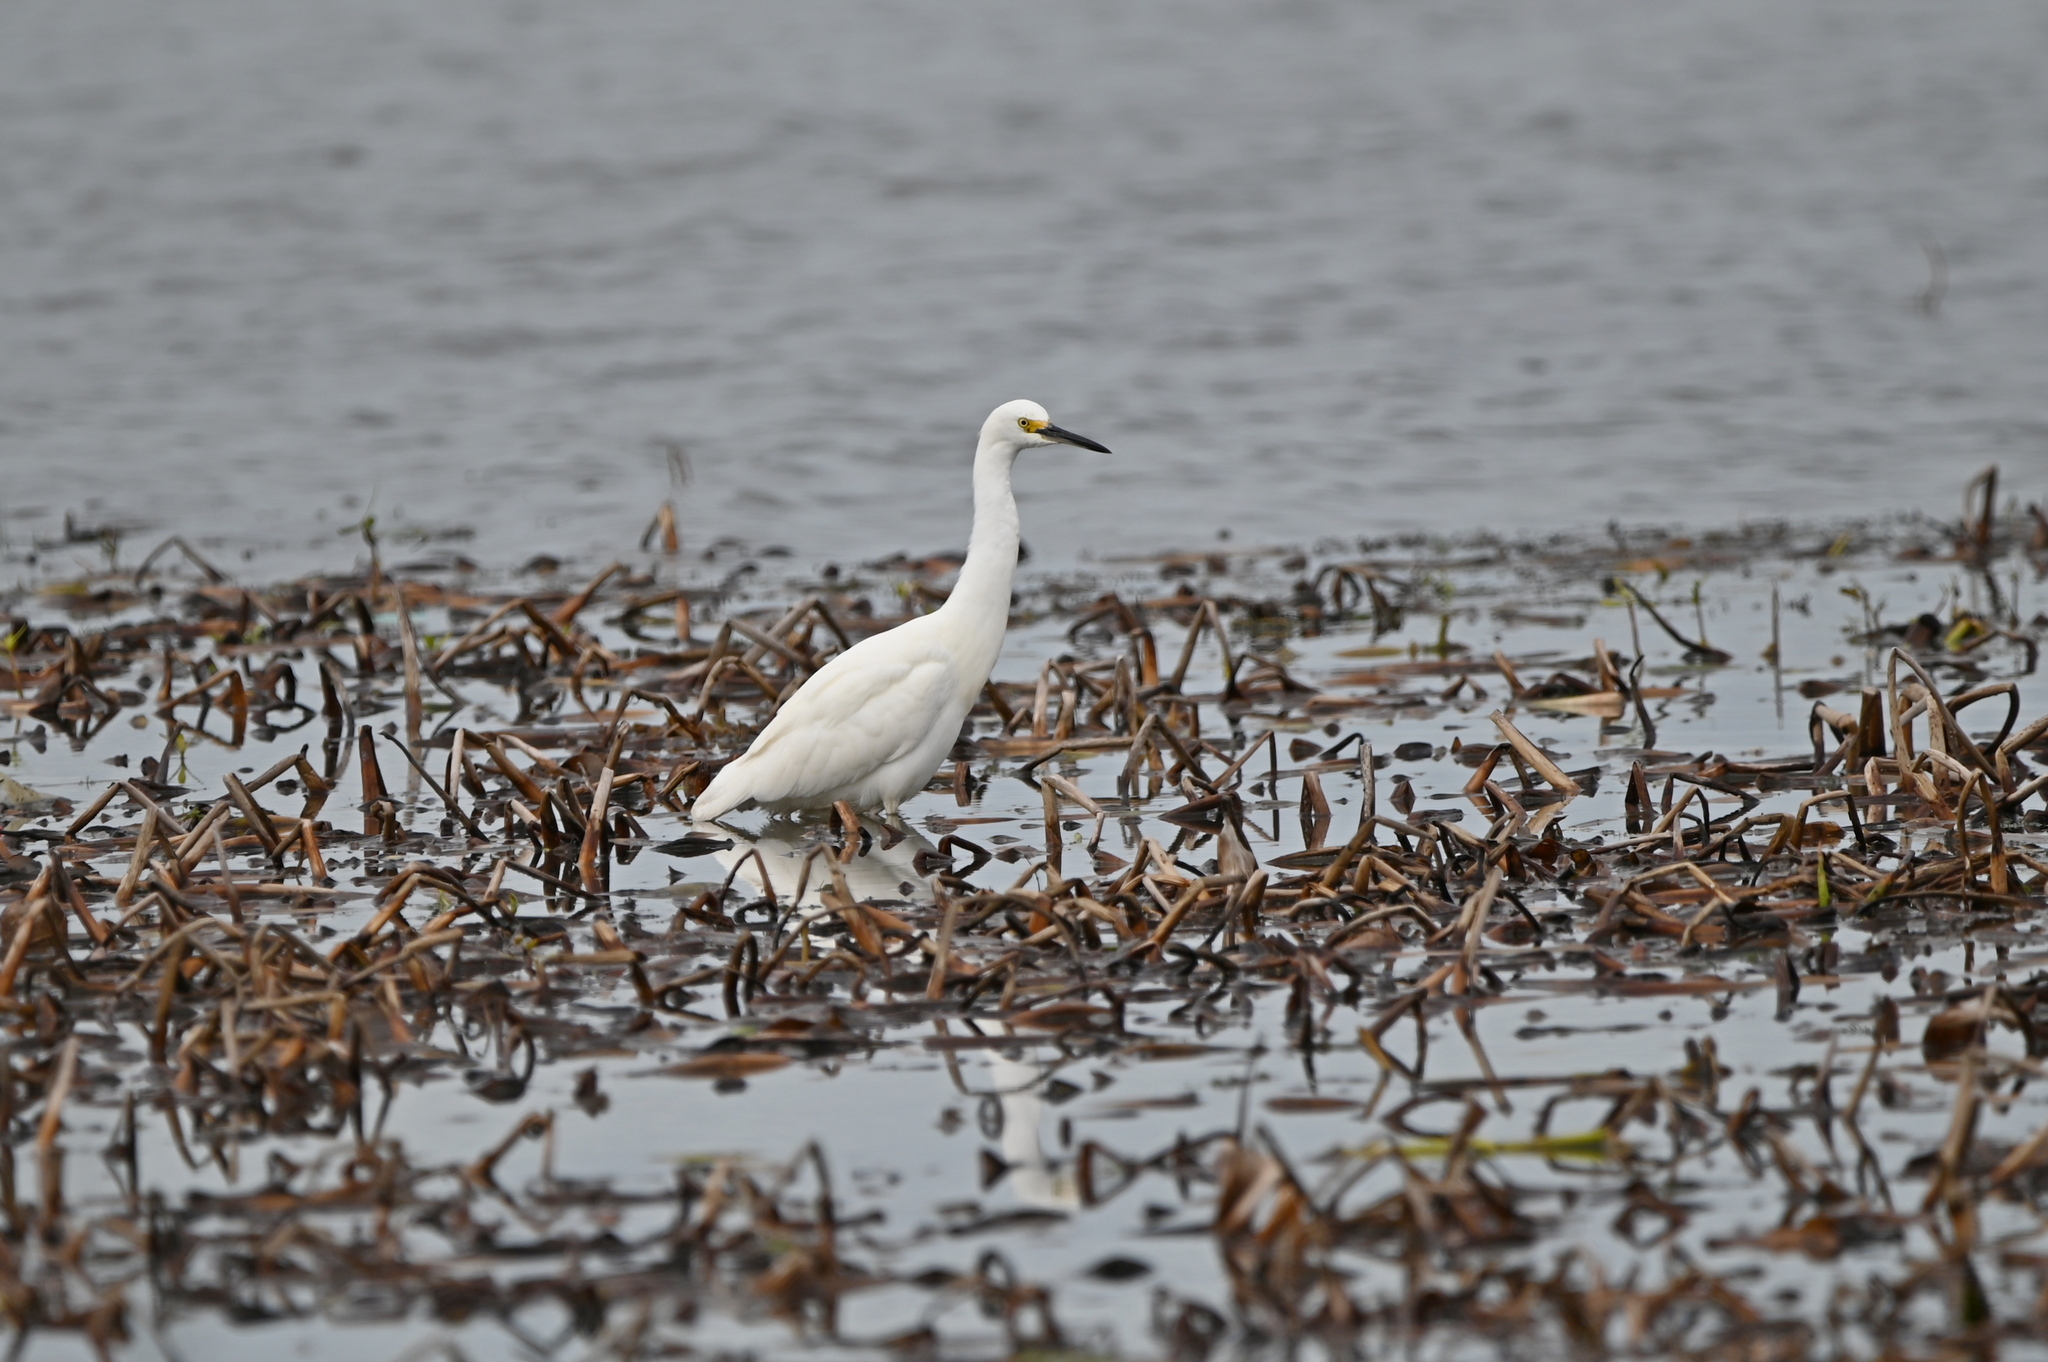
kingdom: Animalia
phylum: Chordata
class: Aves
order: Pelecaniformes
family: Ardeidae
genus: Egretta
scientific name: Egretta thula
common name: Snowy egret
